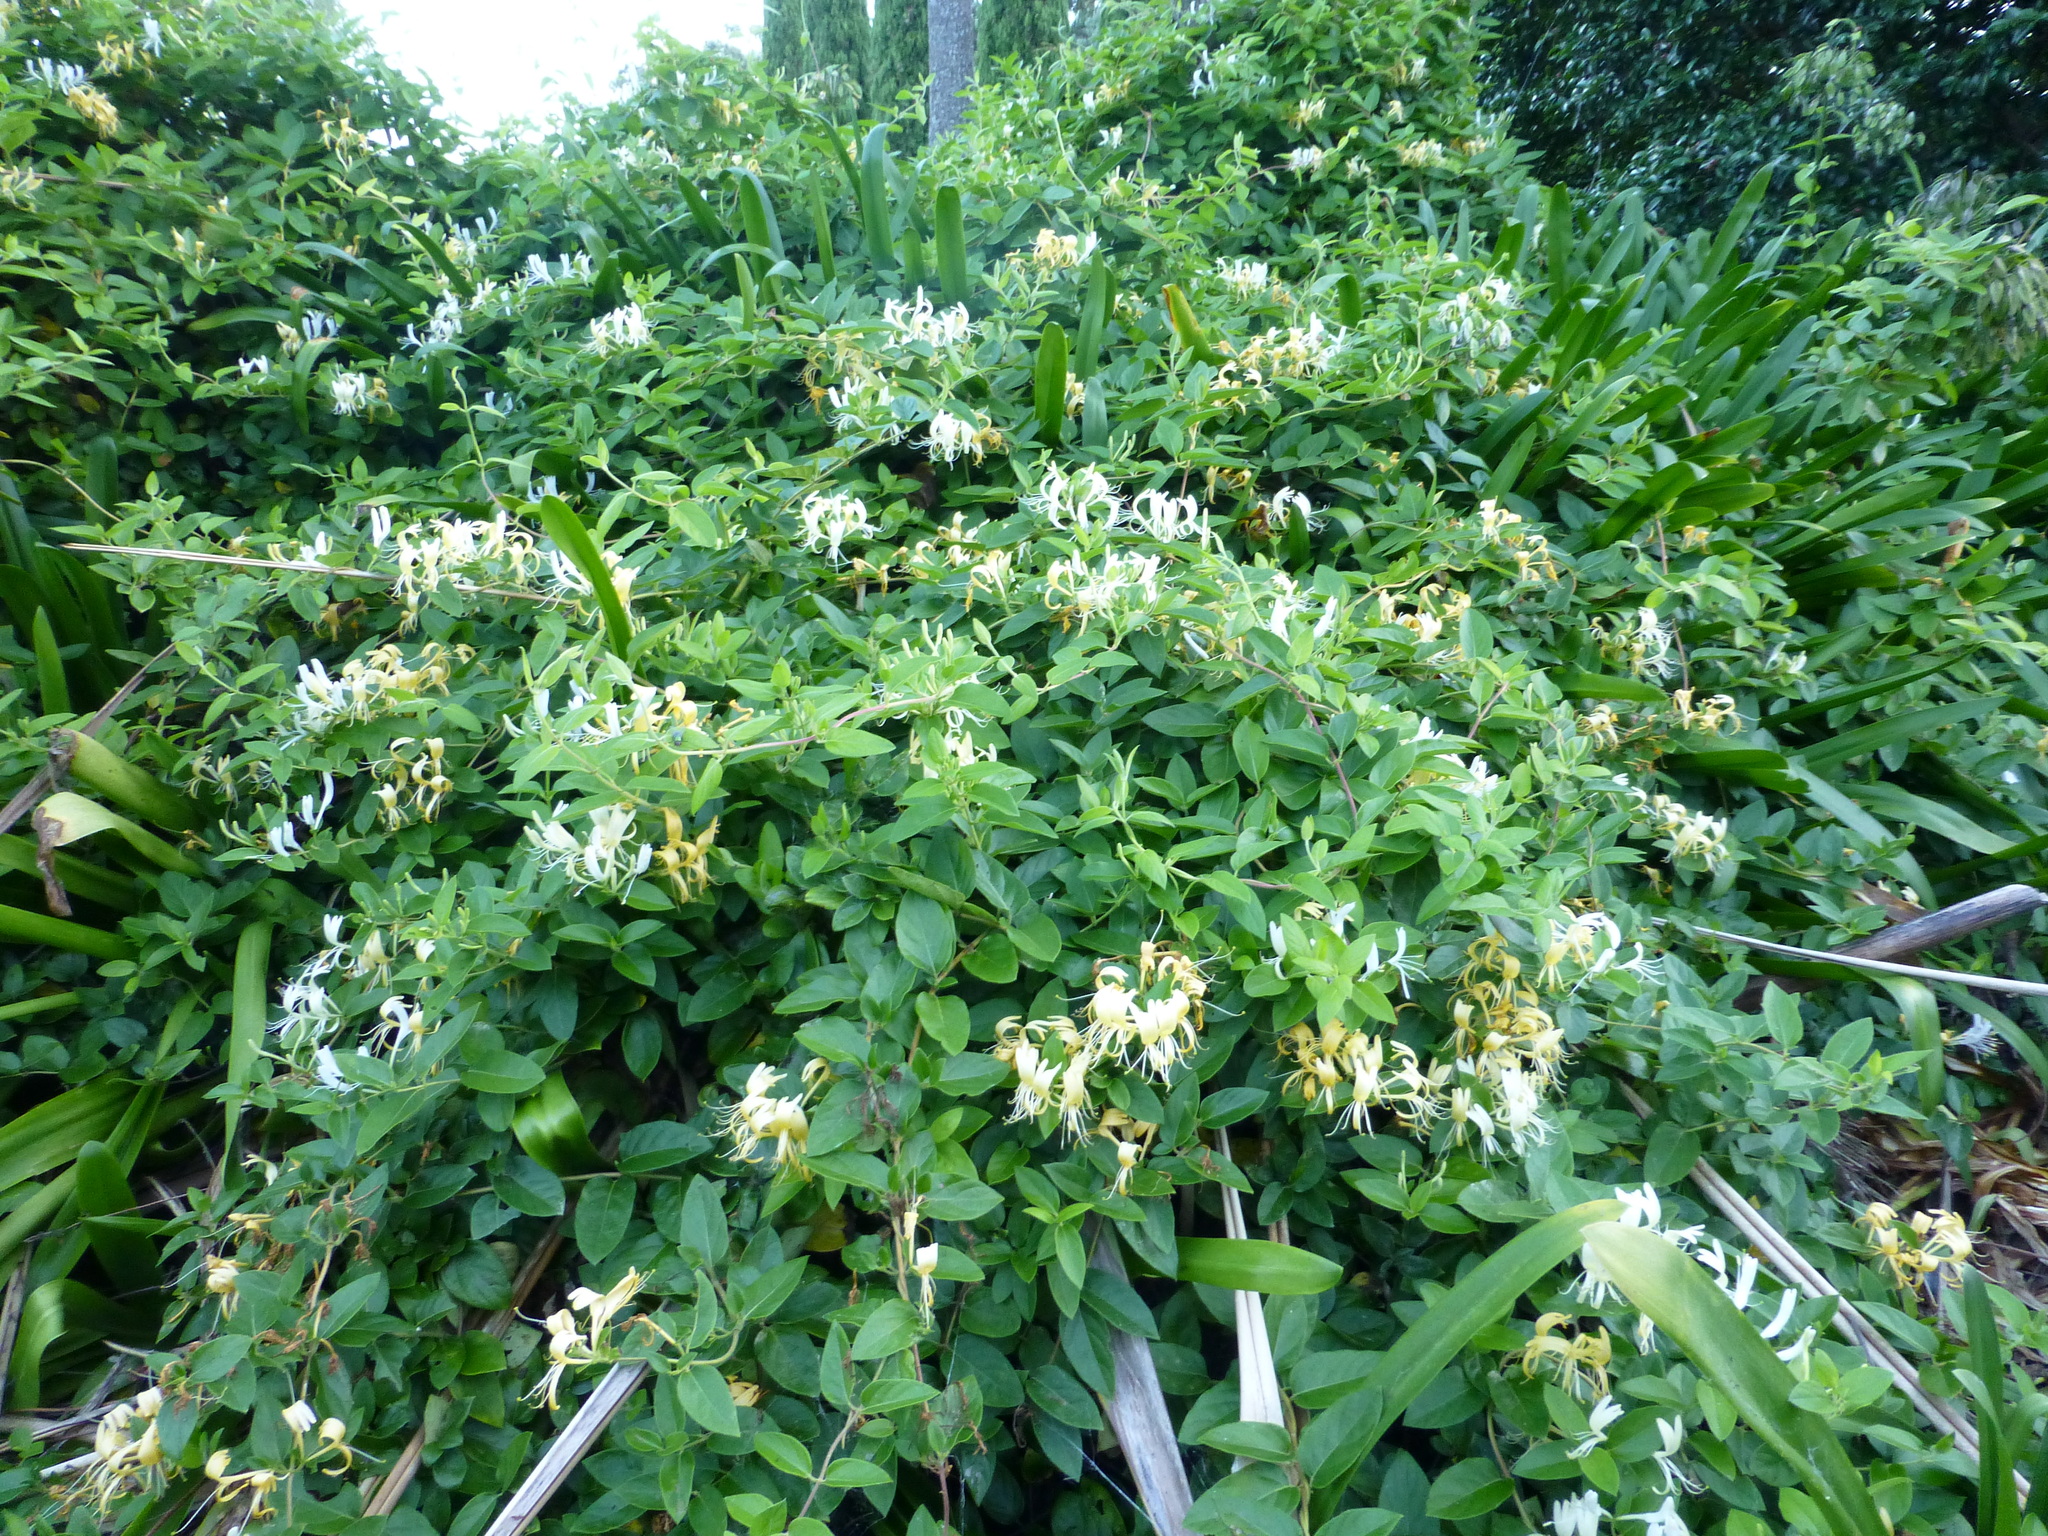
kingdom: Plantae
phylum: Tracheophyta
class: Magnoliopsida
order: Dipsacales
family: Caprifoliaceae
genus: Lonicera
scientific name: Lonicera japonica
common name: Japanese honeysuckle
